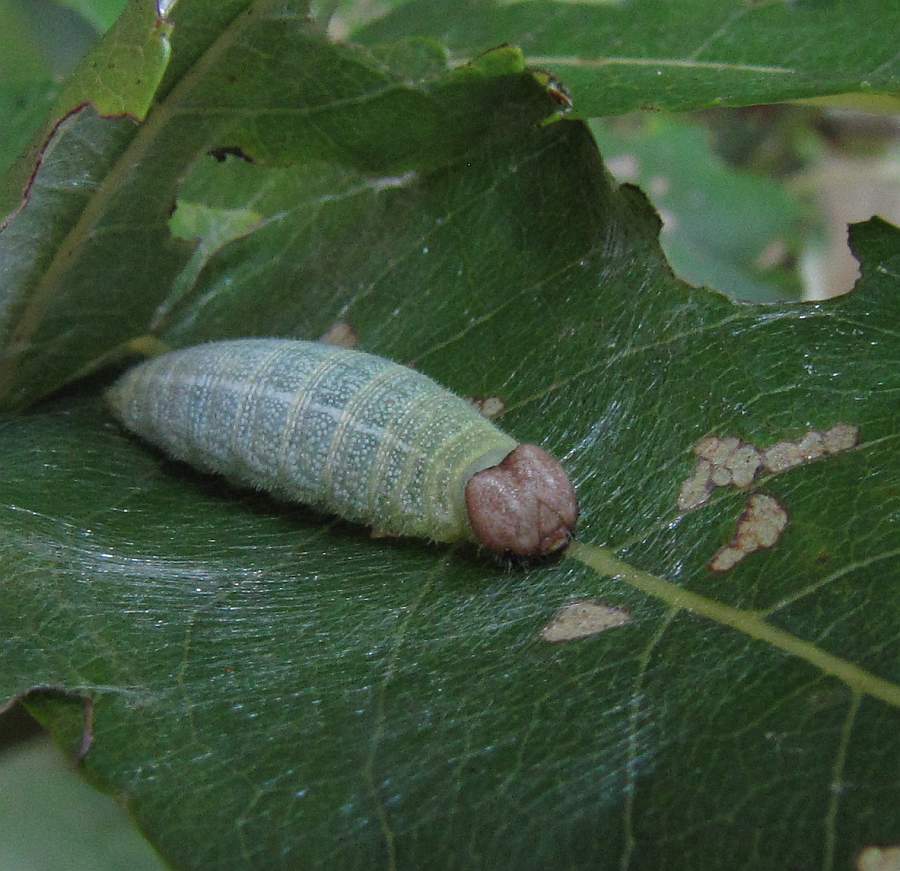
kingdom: Animalia
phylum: Arthropoda
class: Insecta
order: Lepidoptera
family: Hesperiidae
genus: Erynnis
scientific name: Erynnis icelus
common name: Dreamy duskywing
